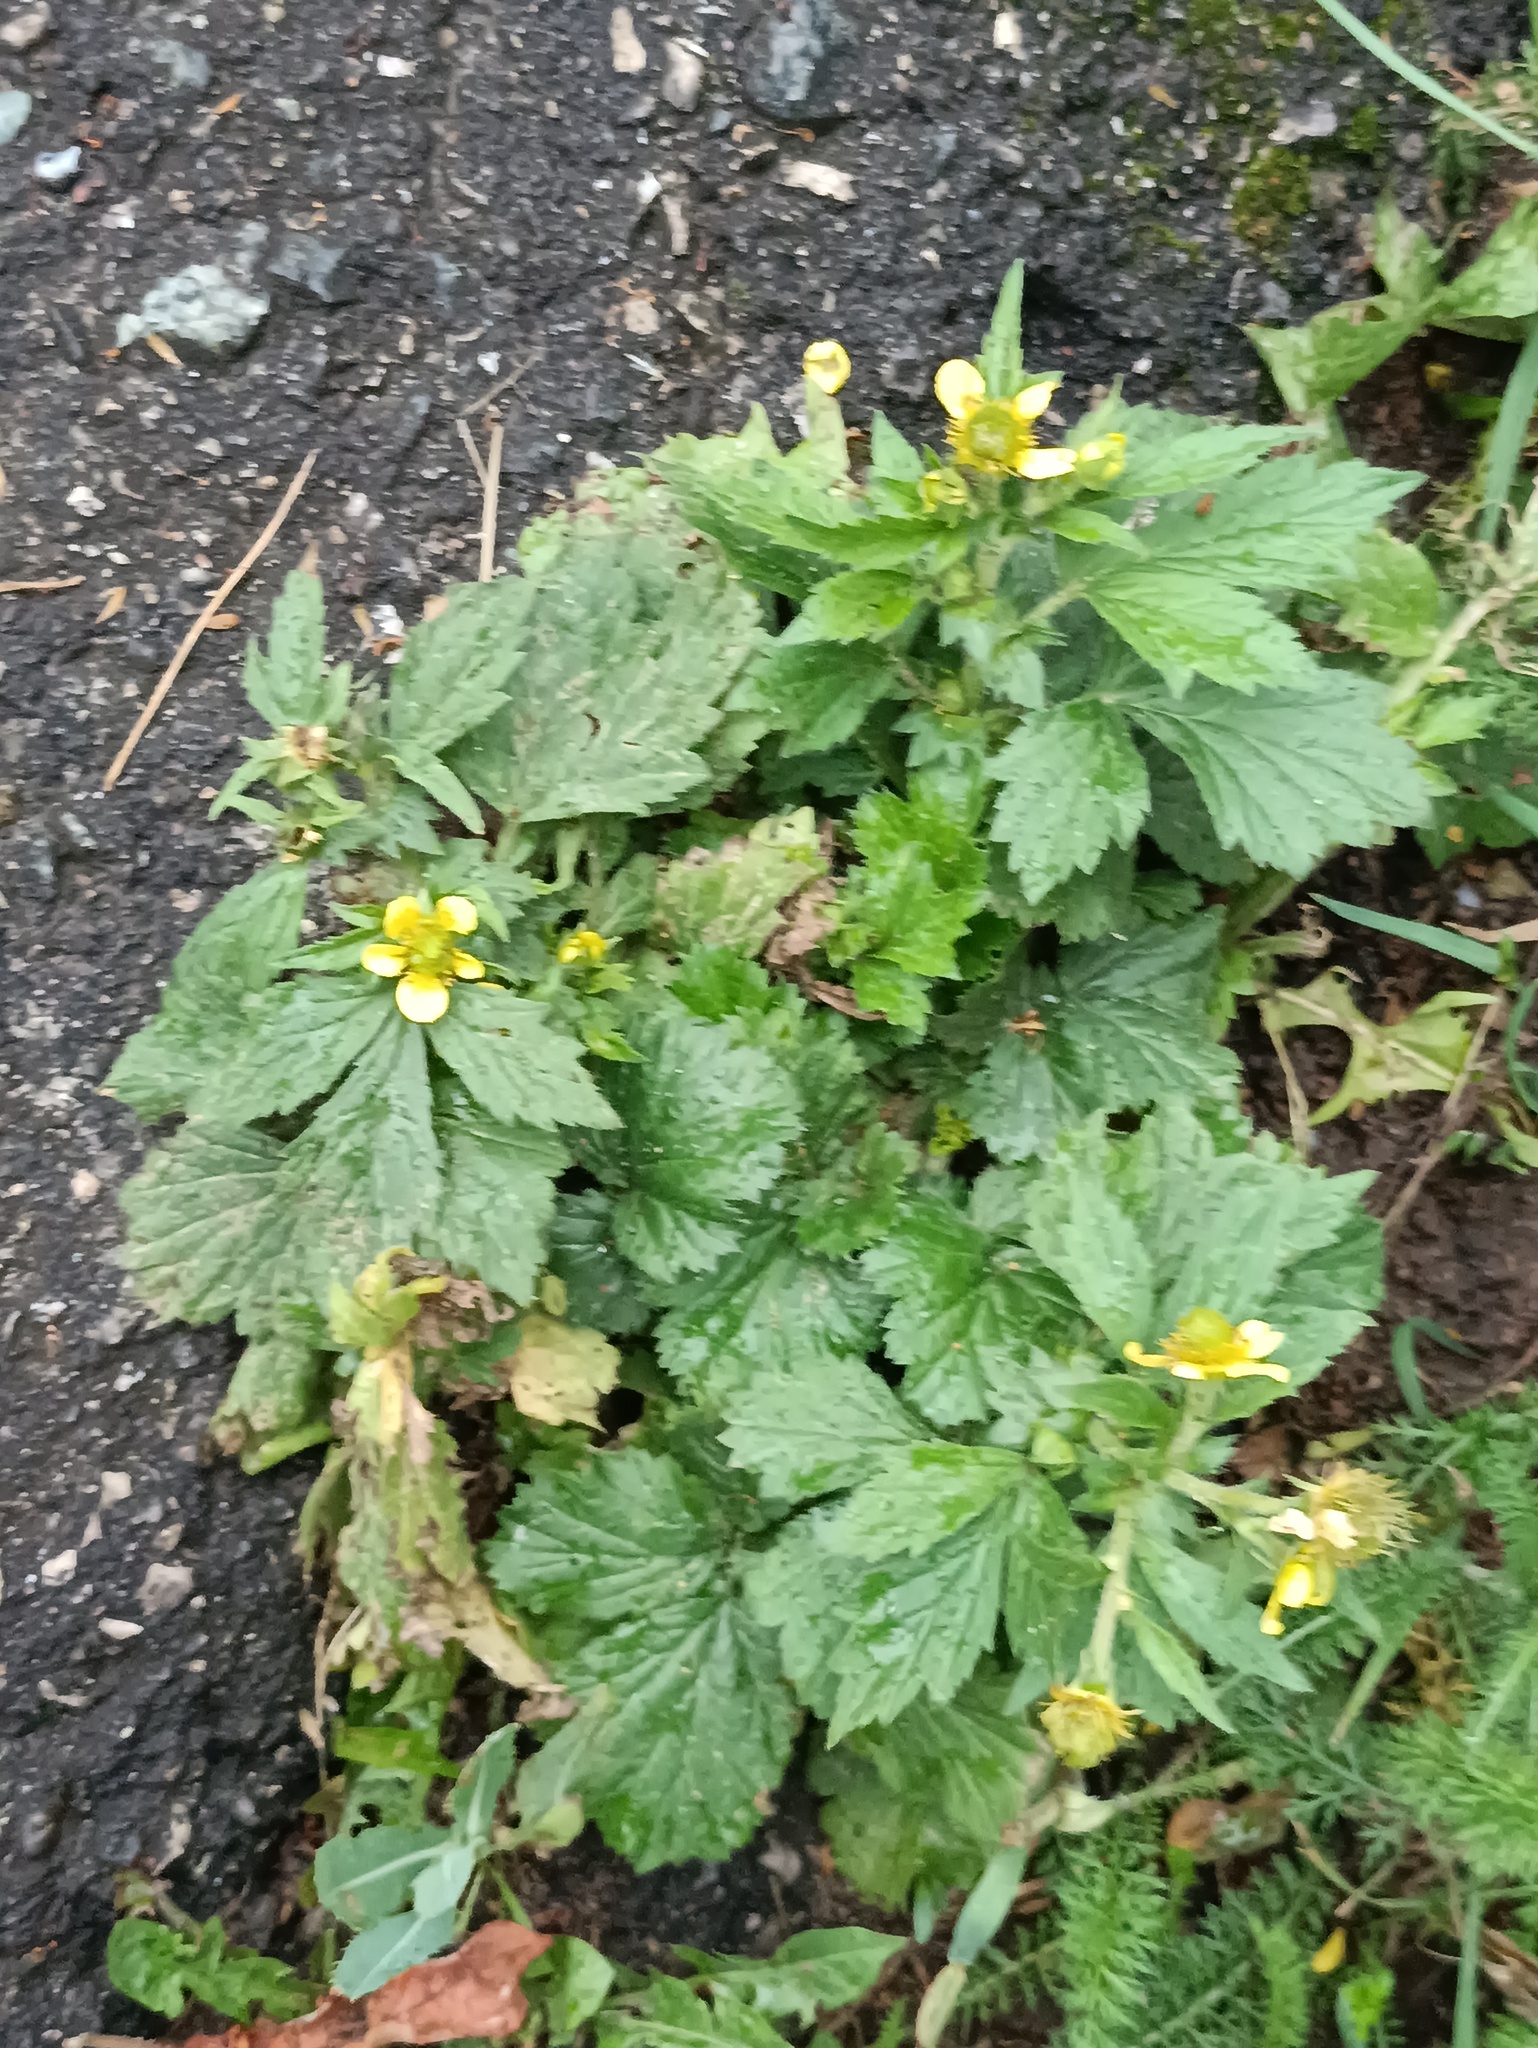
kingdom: Plantae
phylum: Tracheophyta
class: Magnoliopsida
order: Rosales
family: Rosaceae
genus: Geum
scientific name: Geum aleppicum
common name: Yellow avens
